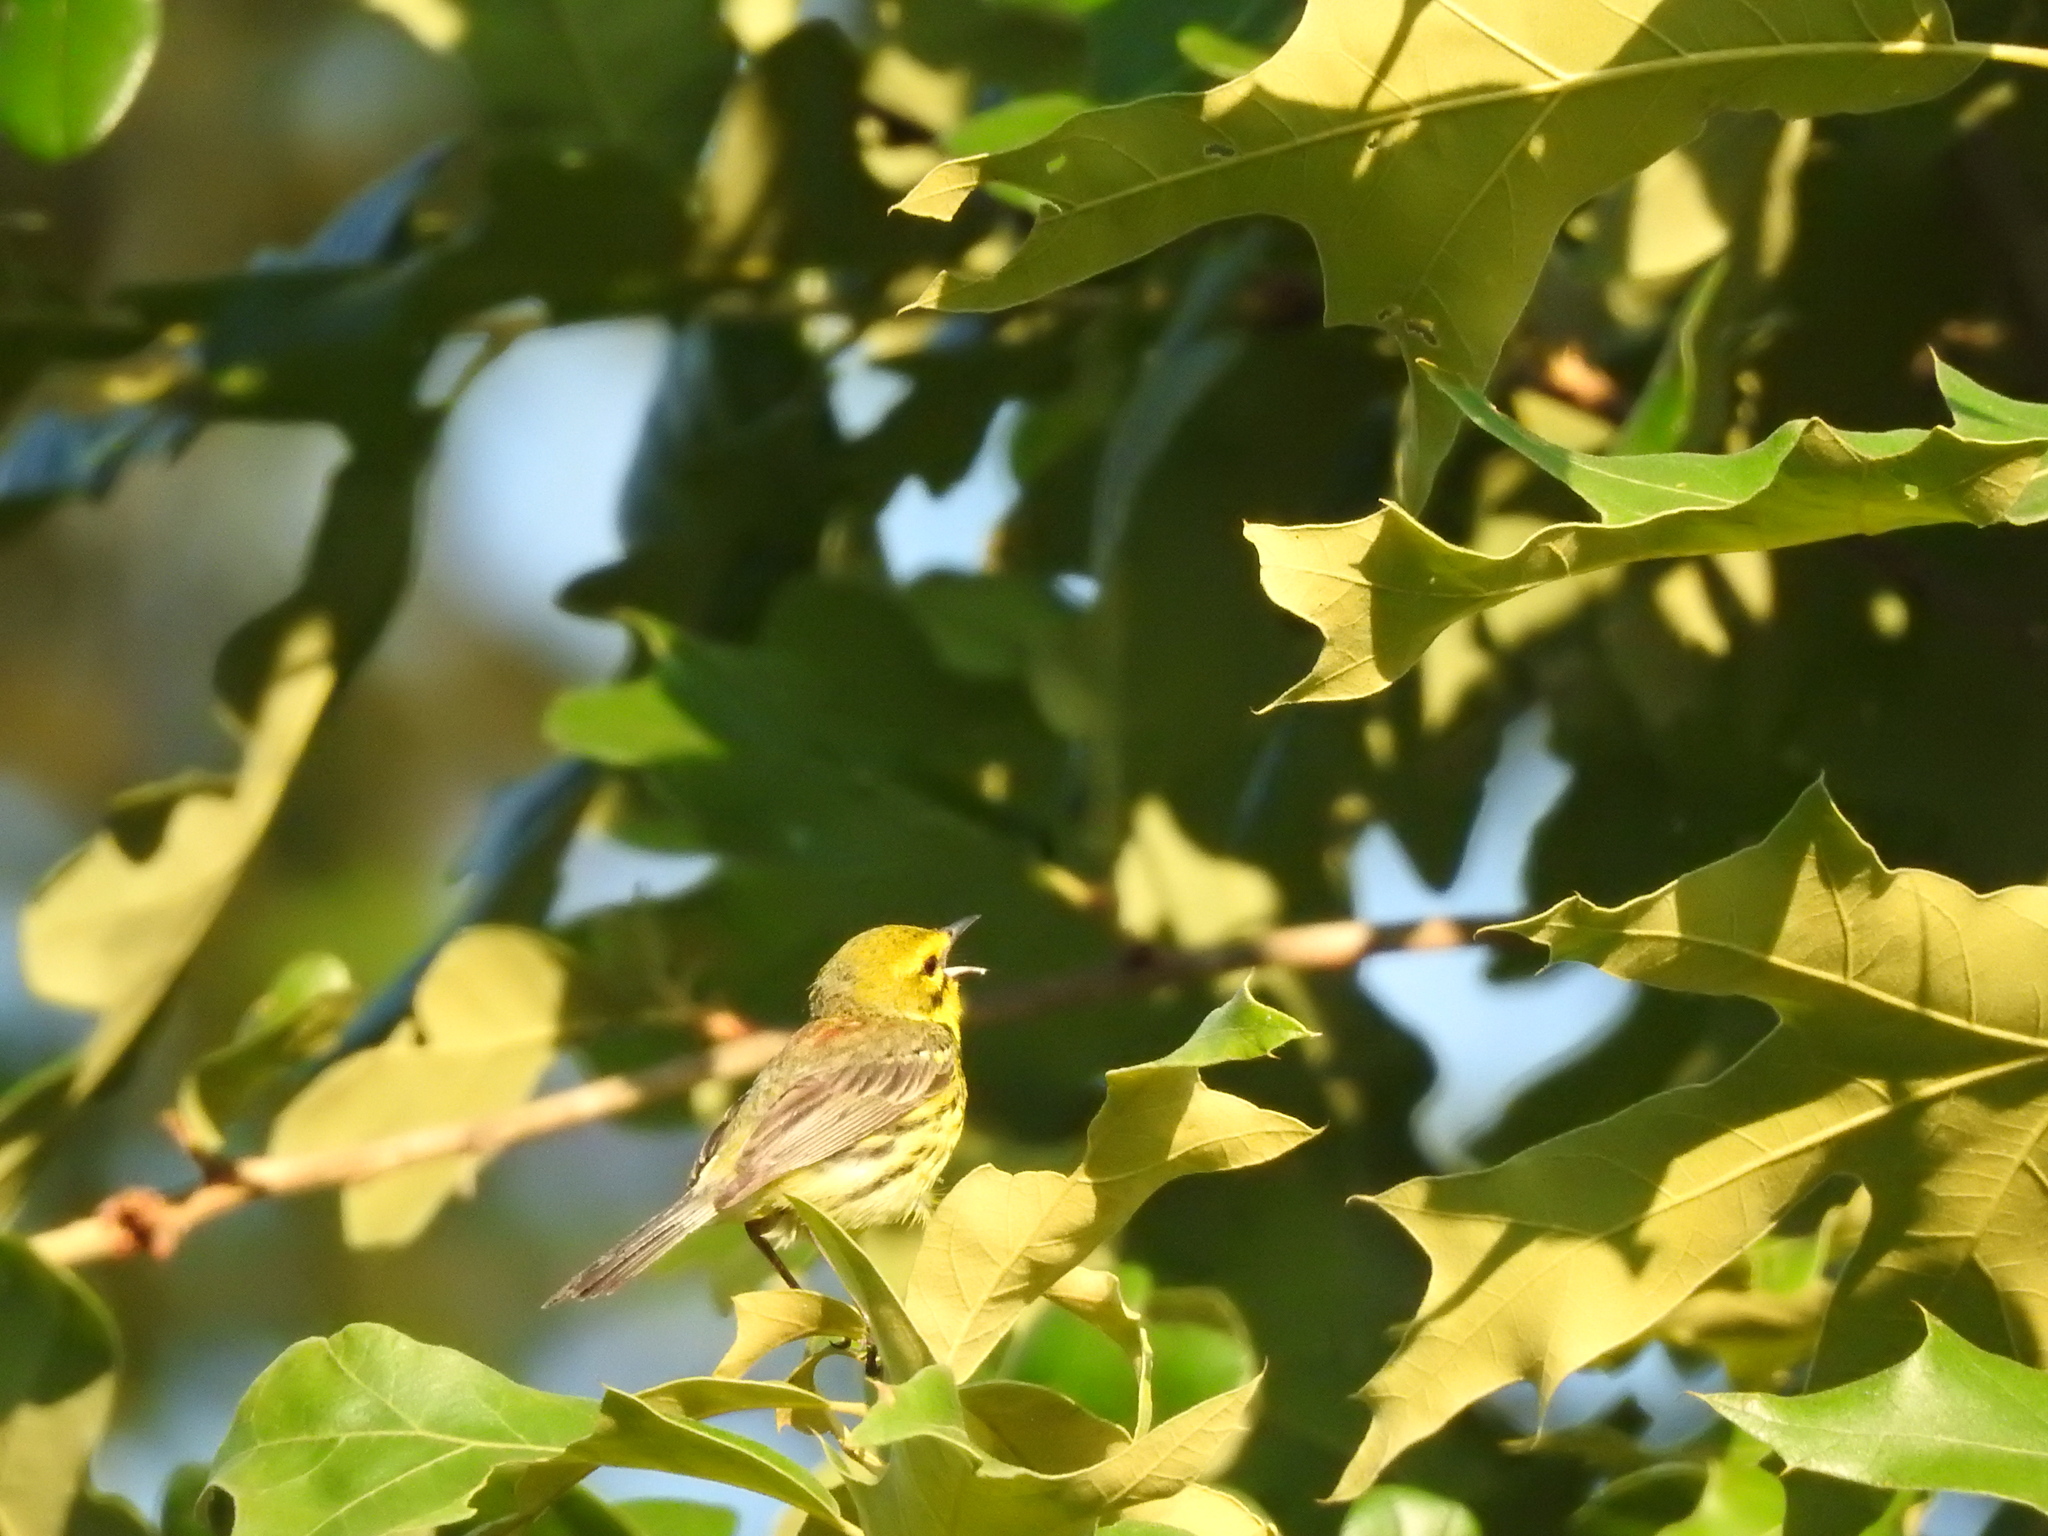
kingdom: Animalia
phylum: Chordata
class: Aves
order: Passeriformes
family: Parulidae
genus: Setophaga
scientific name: Setophaga discolor
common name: Prairie warbler
